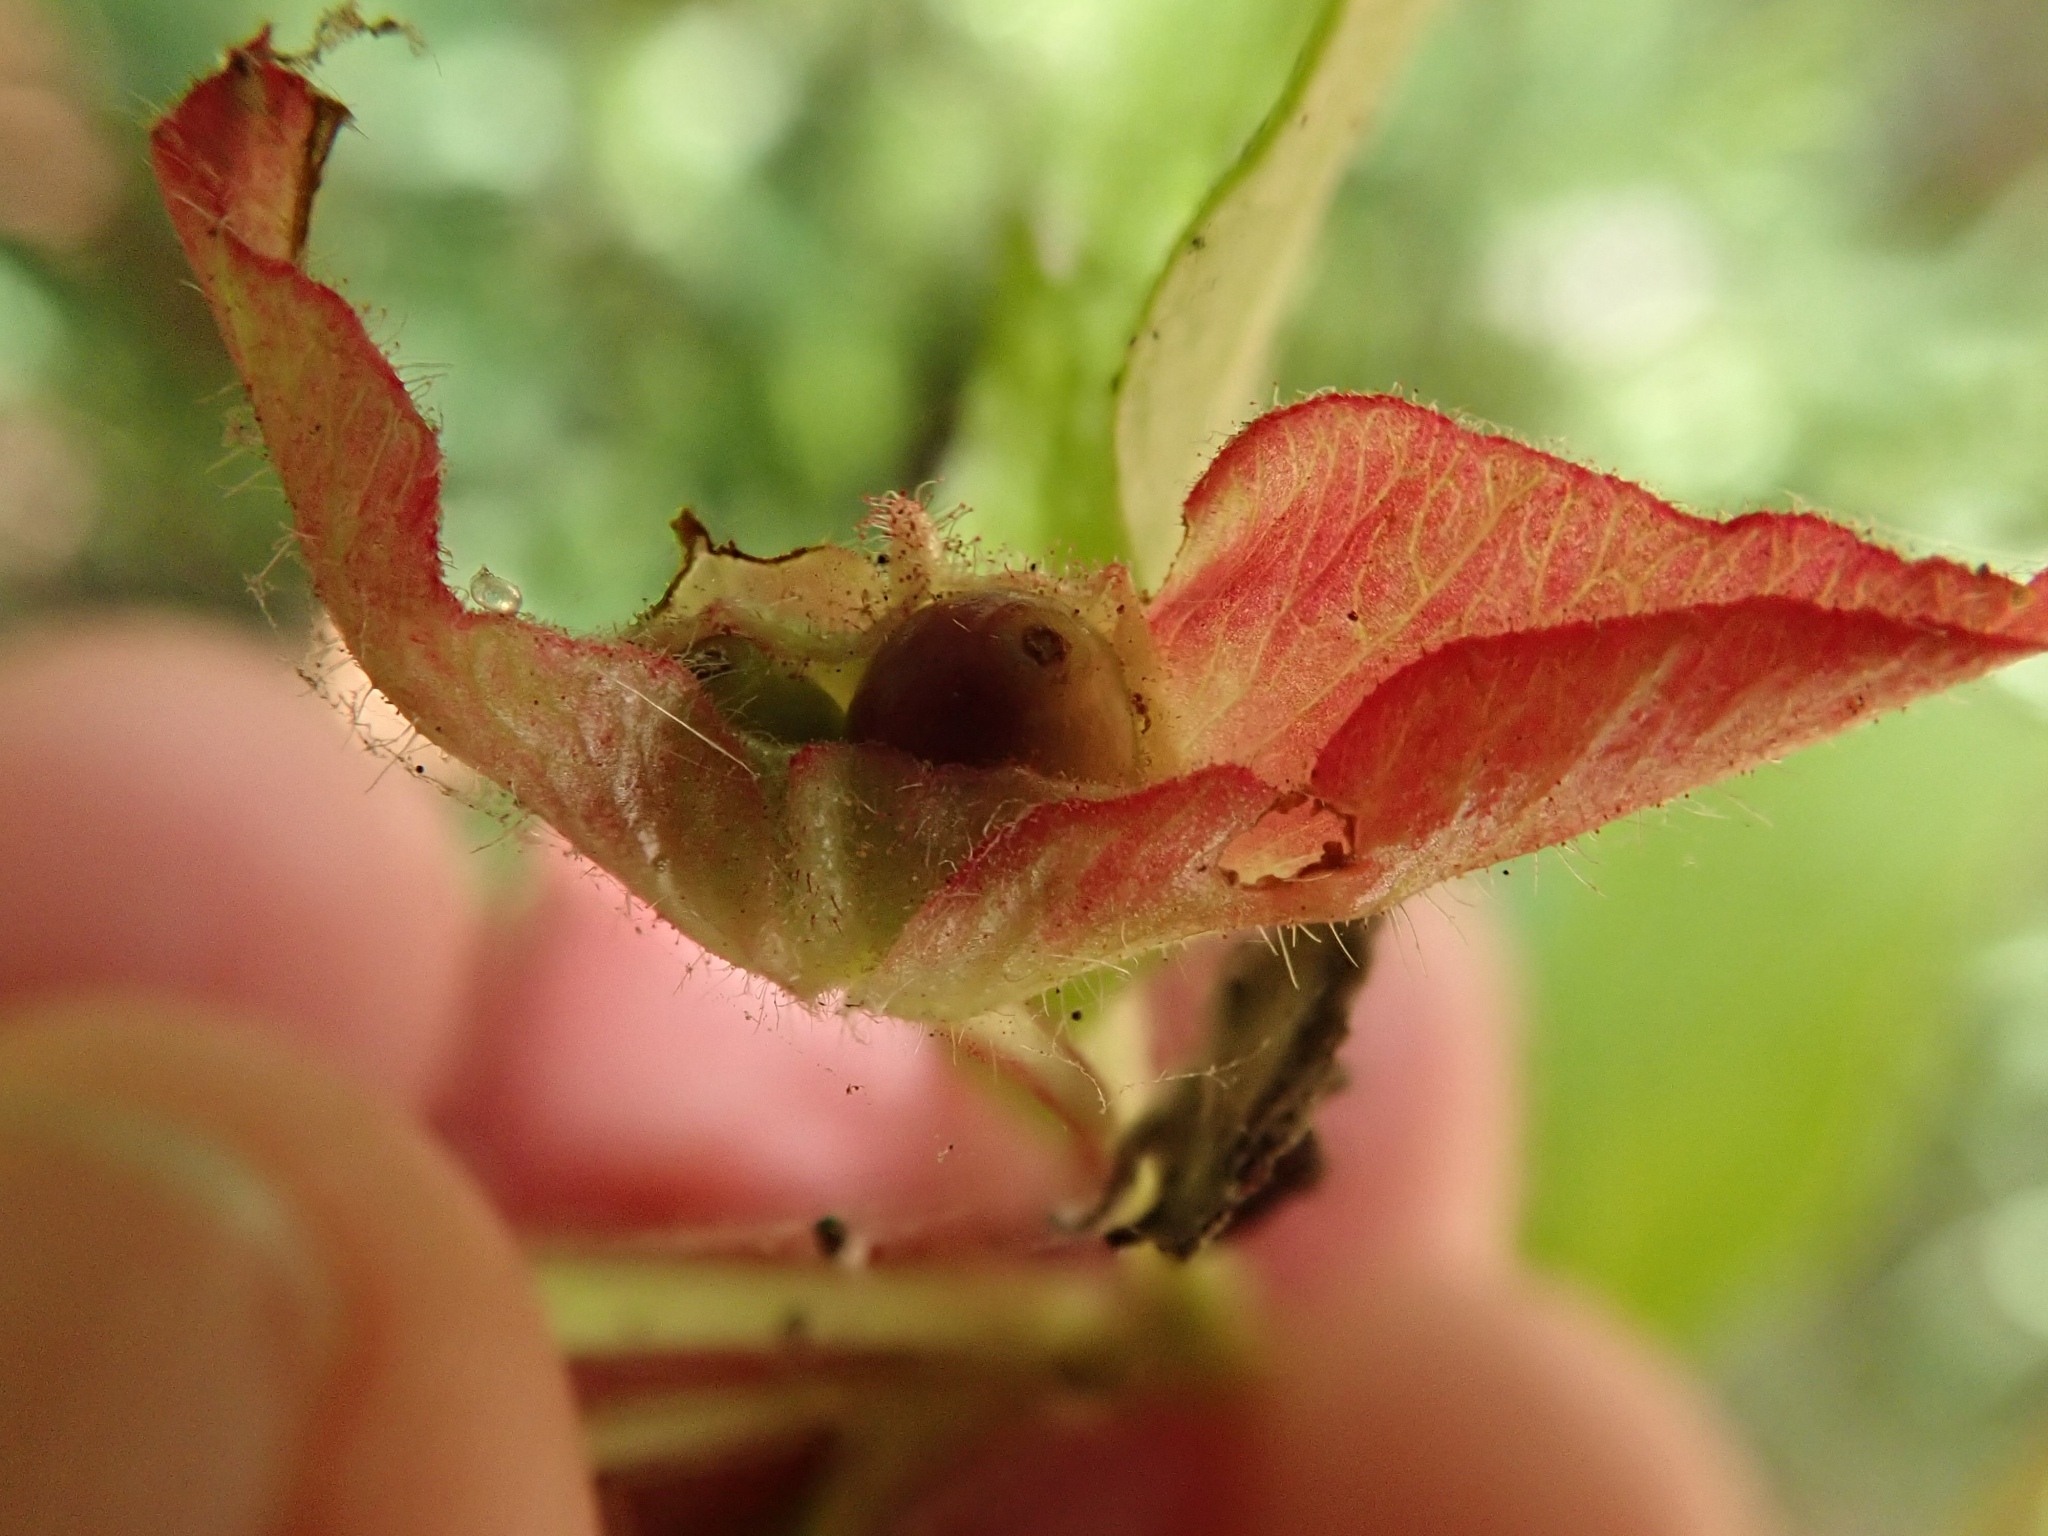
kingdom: Plantae
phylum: Tracheophyta
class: Magnoliopsida
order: Dipsacales
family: Caprifoliaceae
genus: Lonicera
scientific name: Lonicera involucrata
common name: Californian honeysuckle
